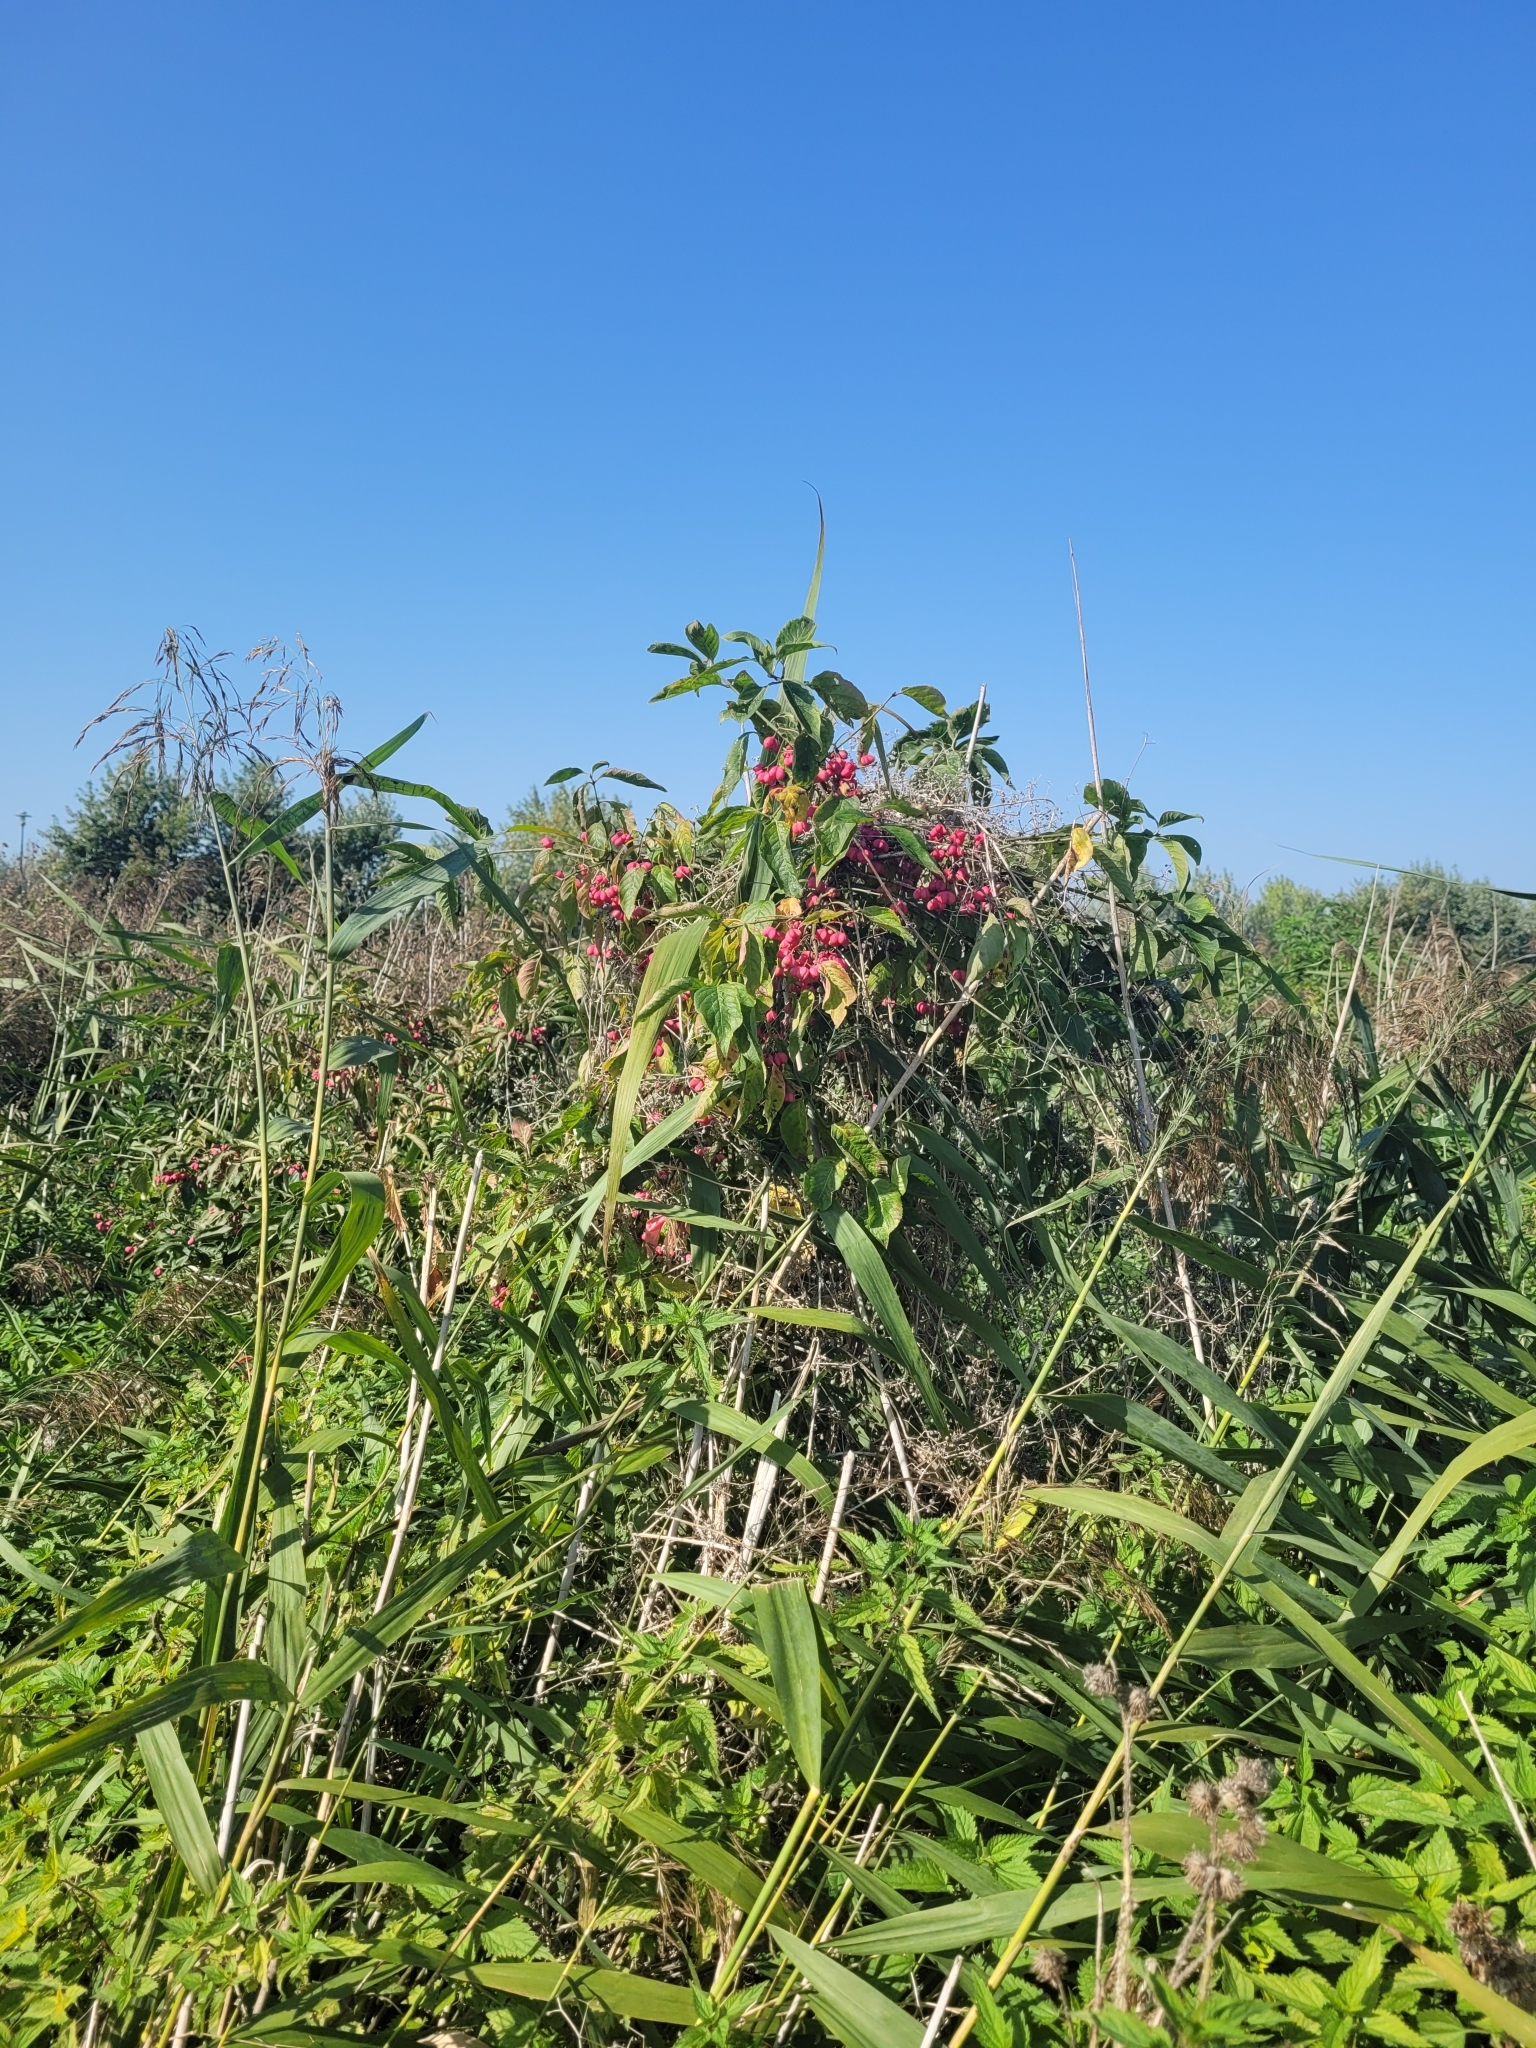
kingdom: Plantae
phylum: Tracheophyta
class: Magnoliopsida
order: Celastrales
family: Celastraceae
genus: Euonymus
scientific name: Euonymus europaeus
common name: Spindle
